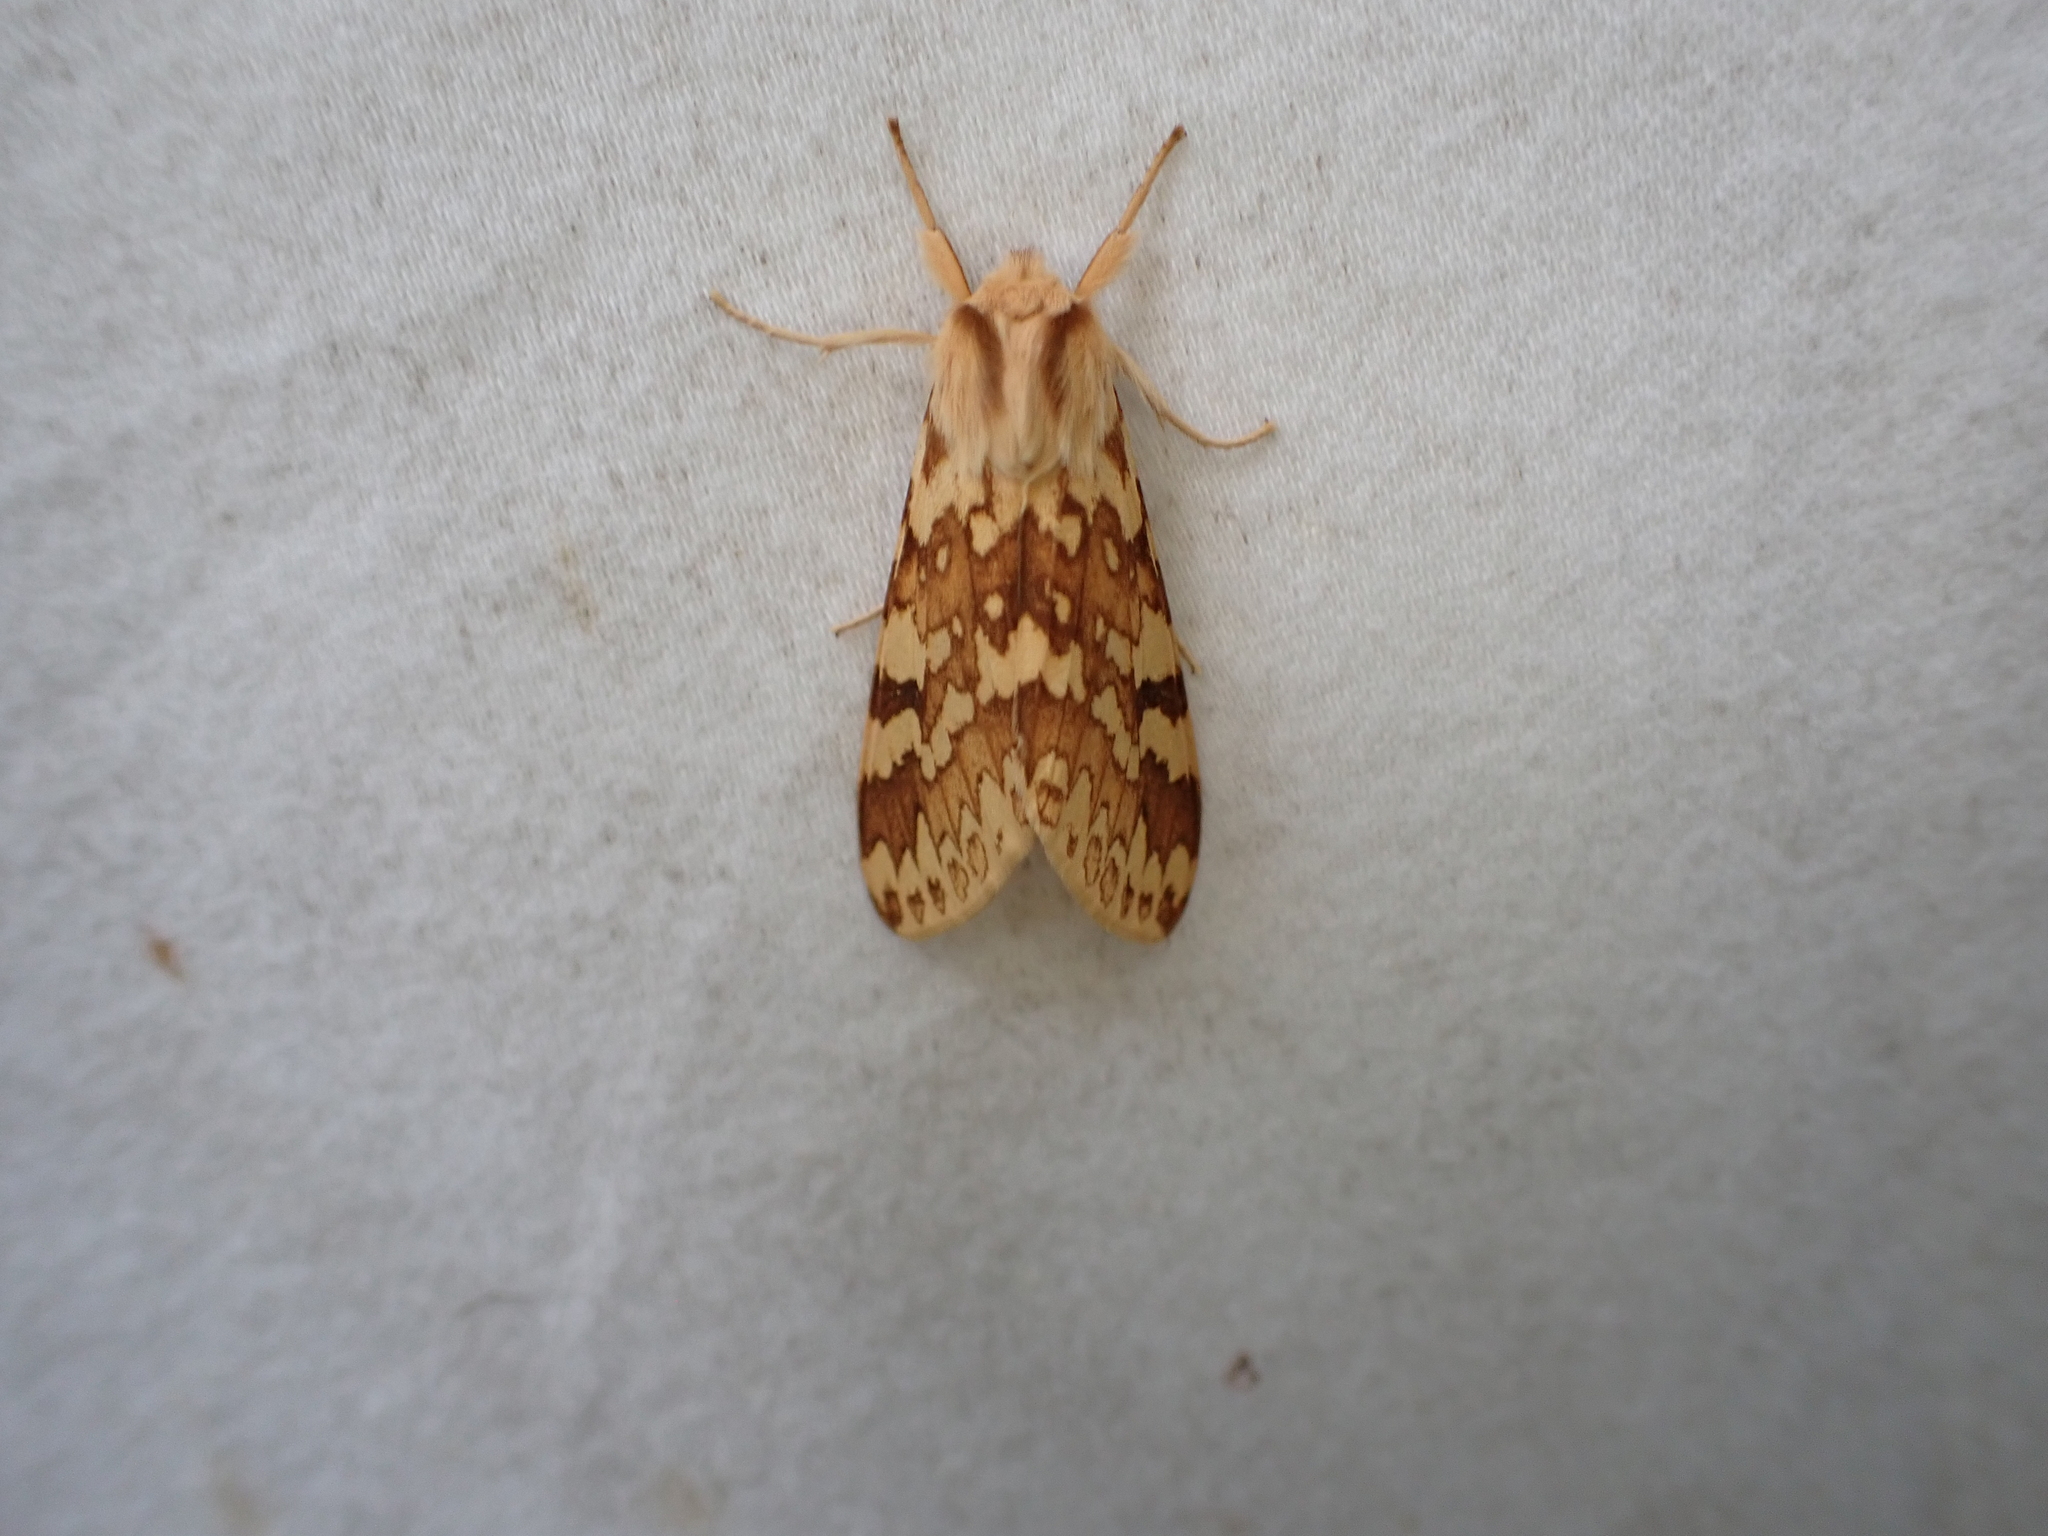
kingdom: Animalia
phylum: Arthropoda
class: Insecta
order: Lepidoptera
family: Erebidae
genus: Lophocampa
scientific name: Lophocampa maculata
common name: Spotted tussock moth
